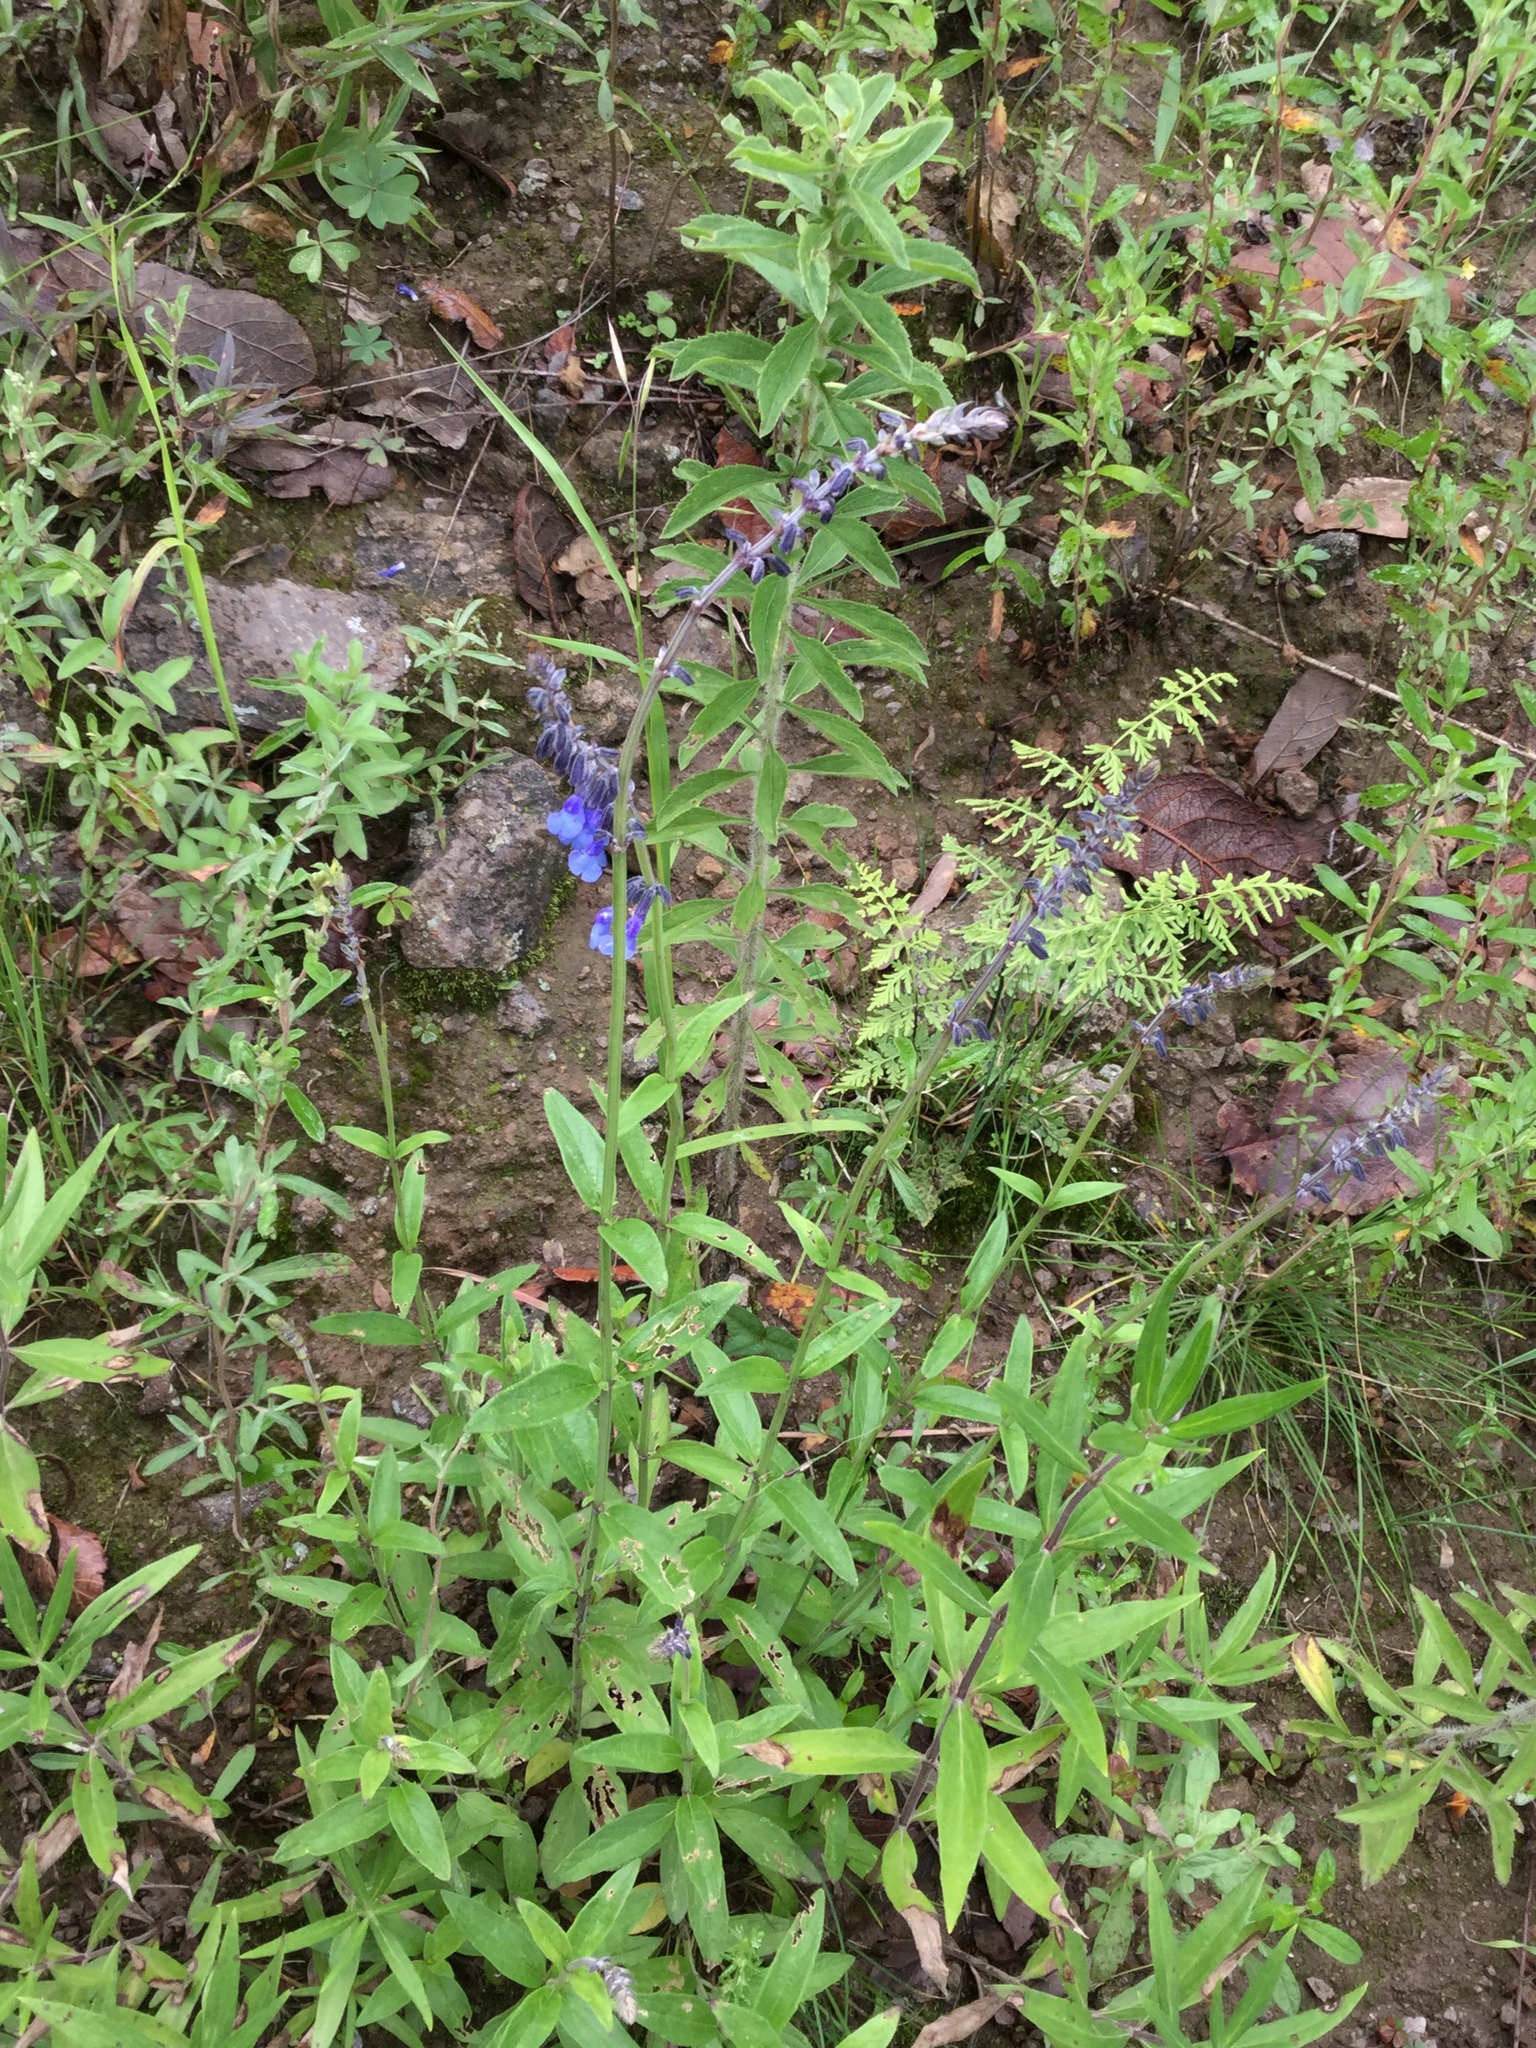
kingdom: Plantae
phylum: Tracheophyta
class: Magnoliopsida
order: Lamiales
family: Lamiaceae
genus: Salvia
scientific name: Salvia helianthemifolia
